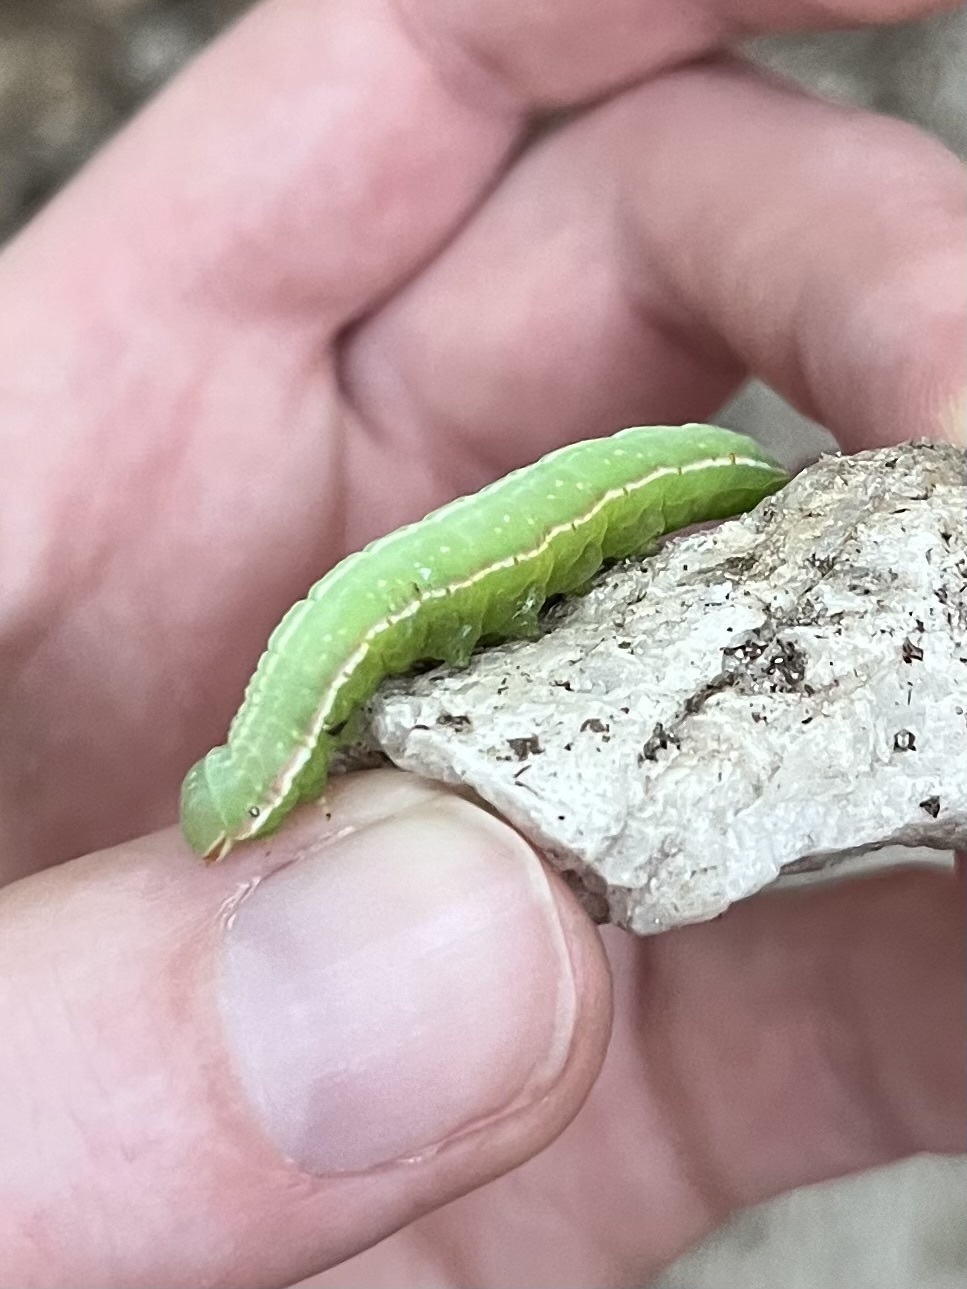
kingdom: Animalia
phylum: Arthropoda
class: Insecta
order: Lepidoptera
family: Notodontidae
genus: Peridea
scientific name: Peridea angulosa
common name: Angulose prominent
